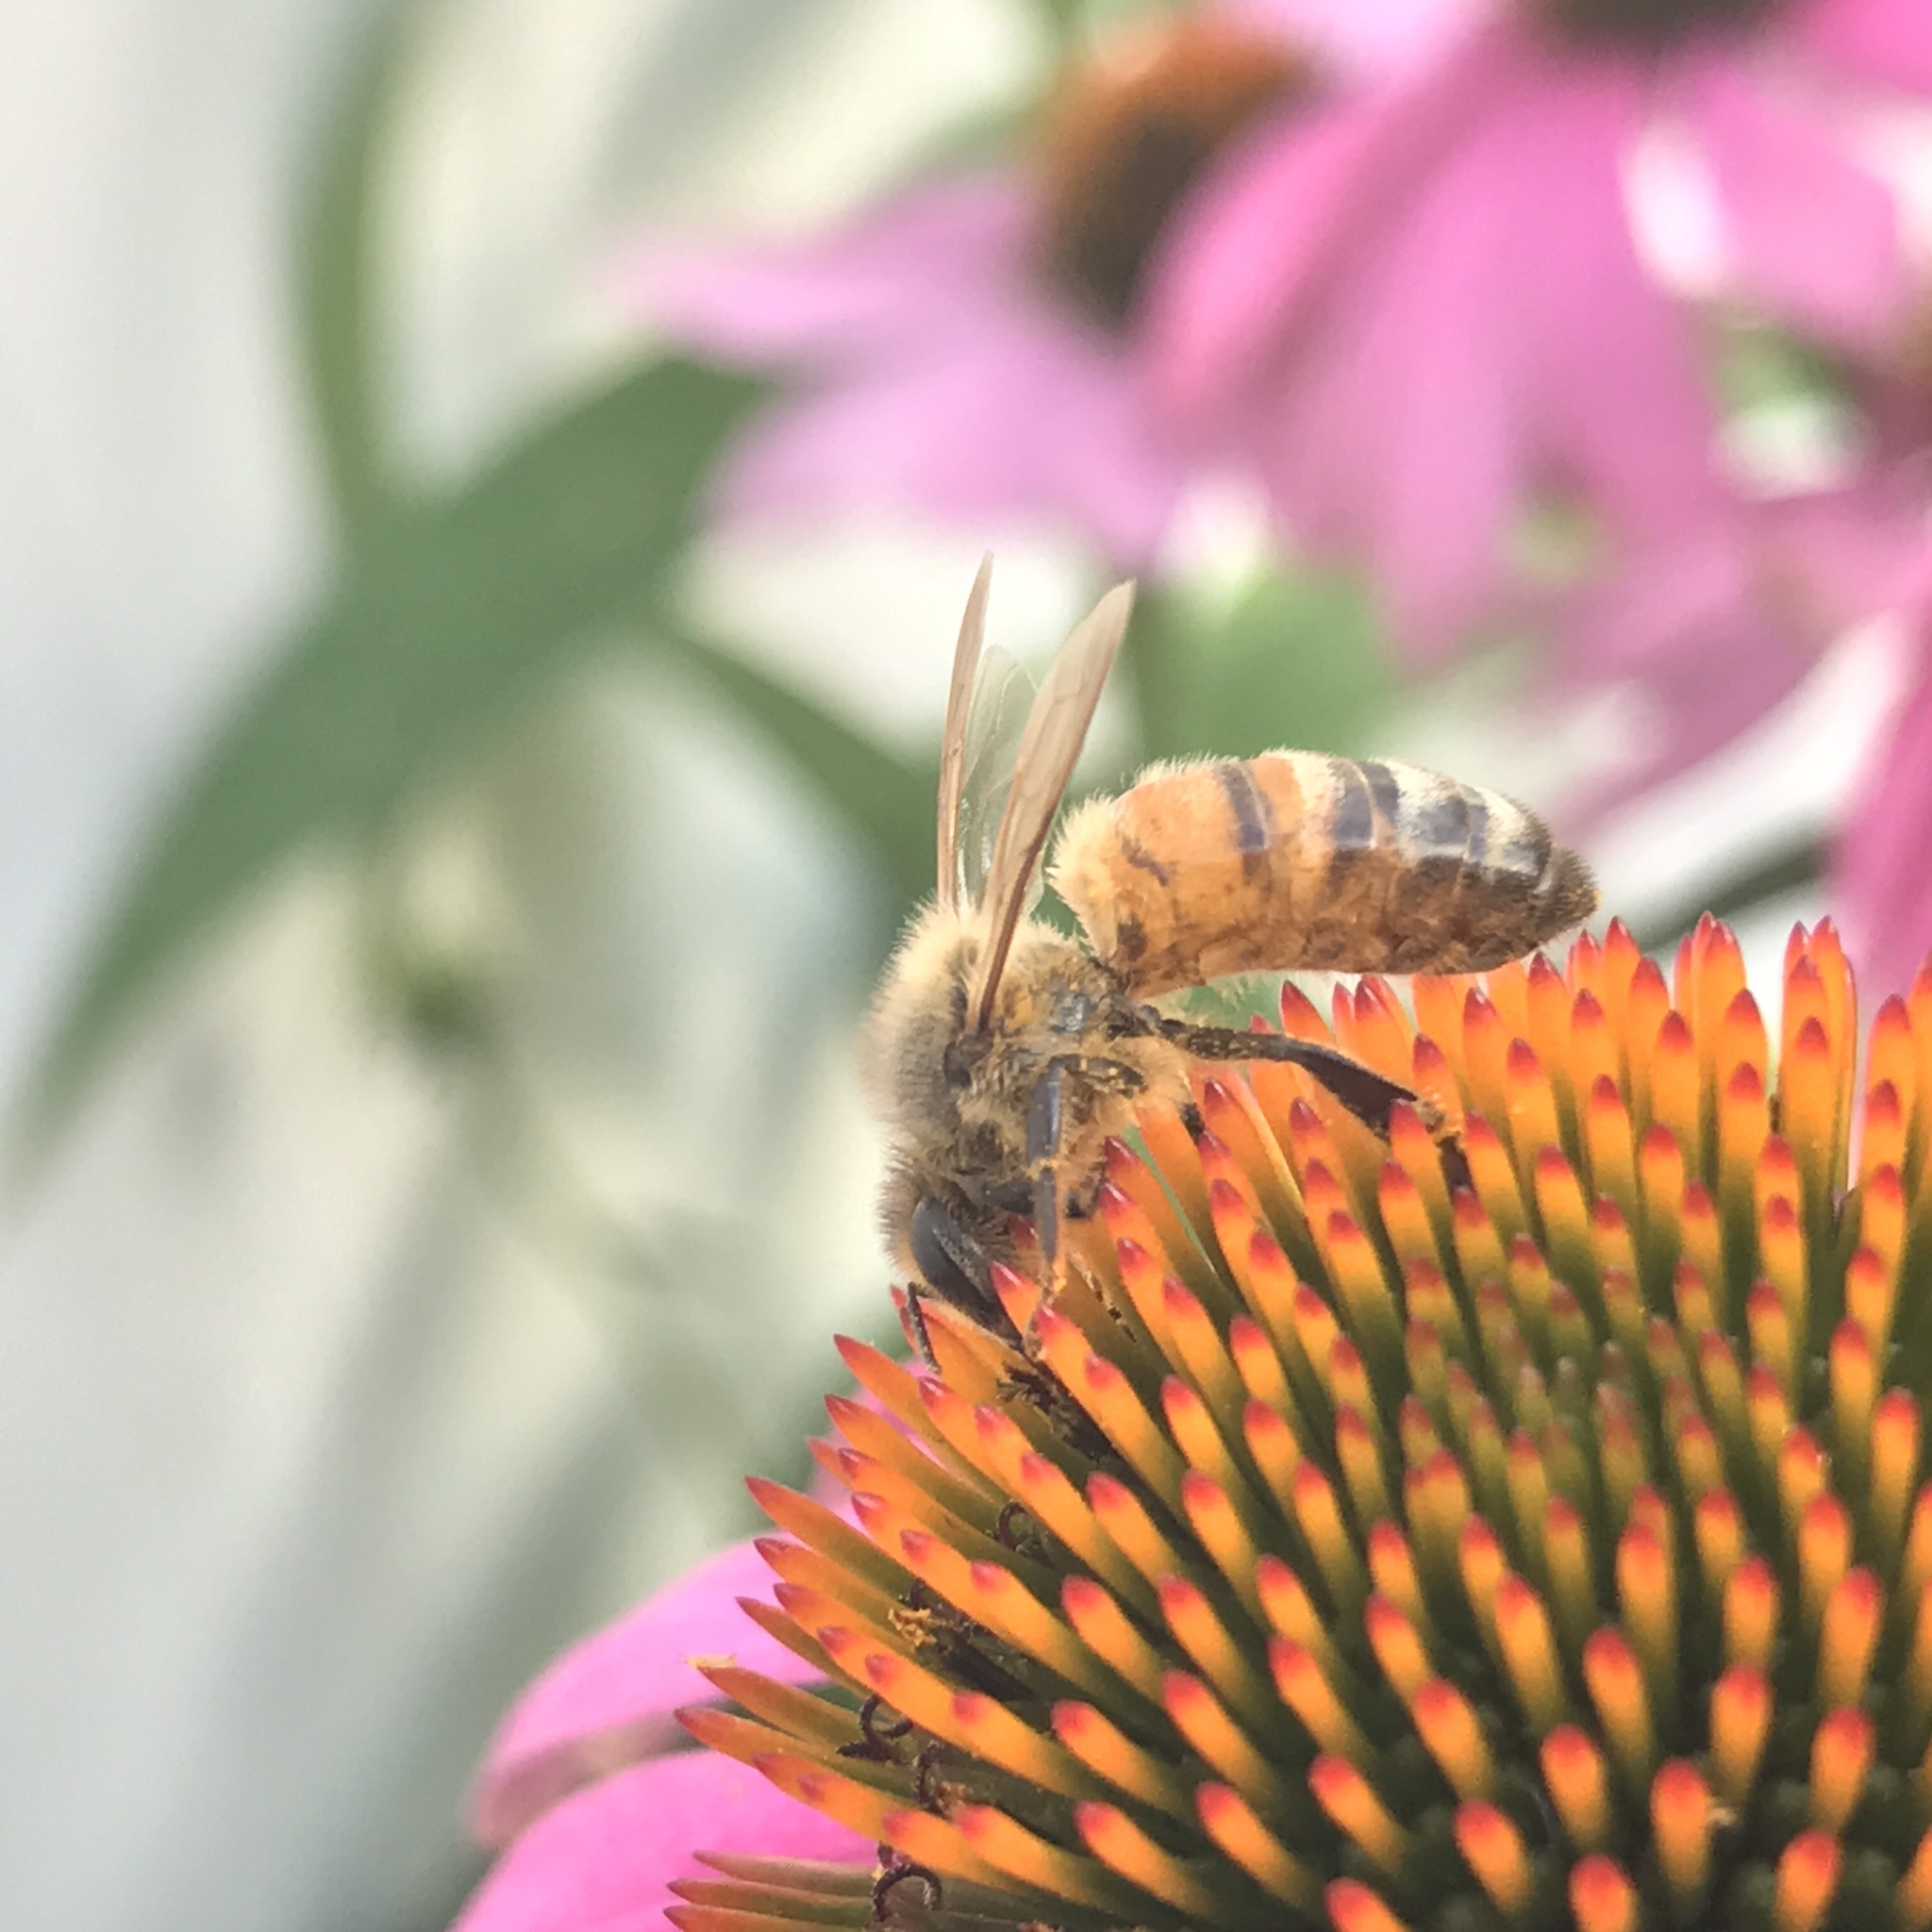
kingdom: Animalia
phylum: Arthropoda
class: Insecta
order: Hymenoptera
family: Apidae
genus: Apis
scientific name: Apis mellifera
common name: Honey bee
